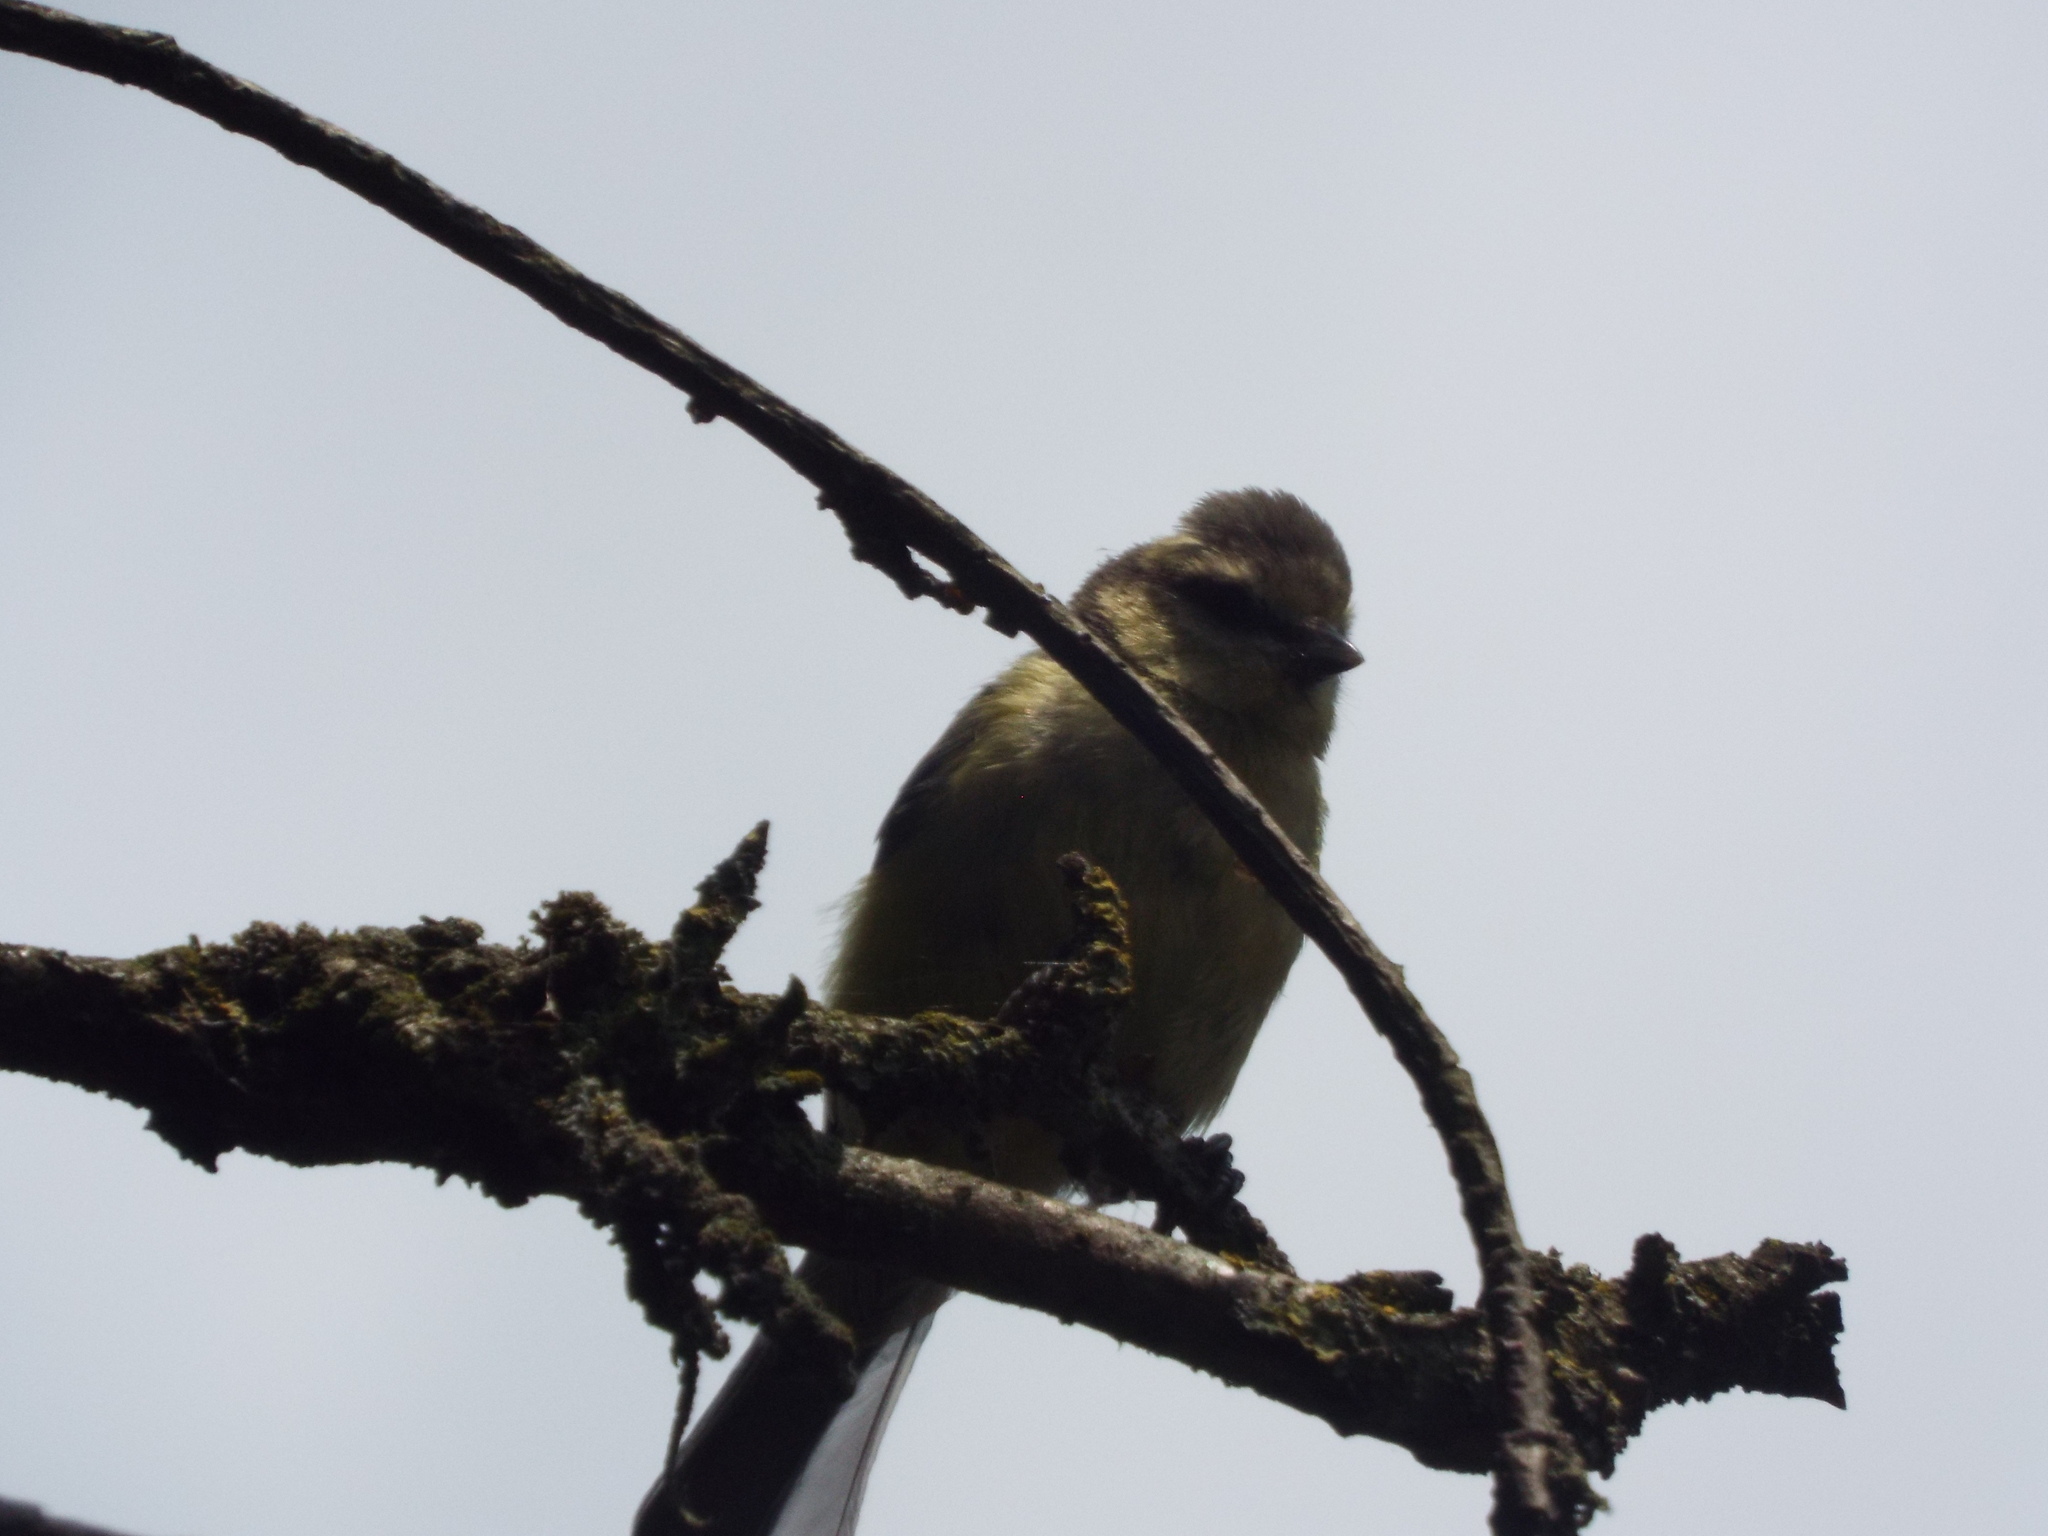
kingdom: Animalia
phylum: Chordata
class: Aves
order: Passeriformes
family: Paridae
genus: Cyanistes
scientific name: Cyanistes caeruleus
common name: Eurasian blue tit
